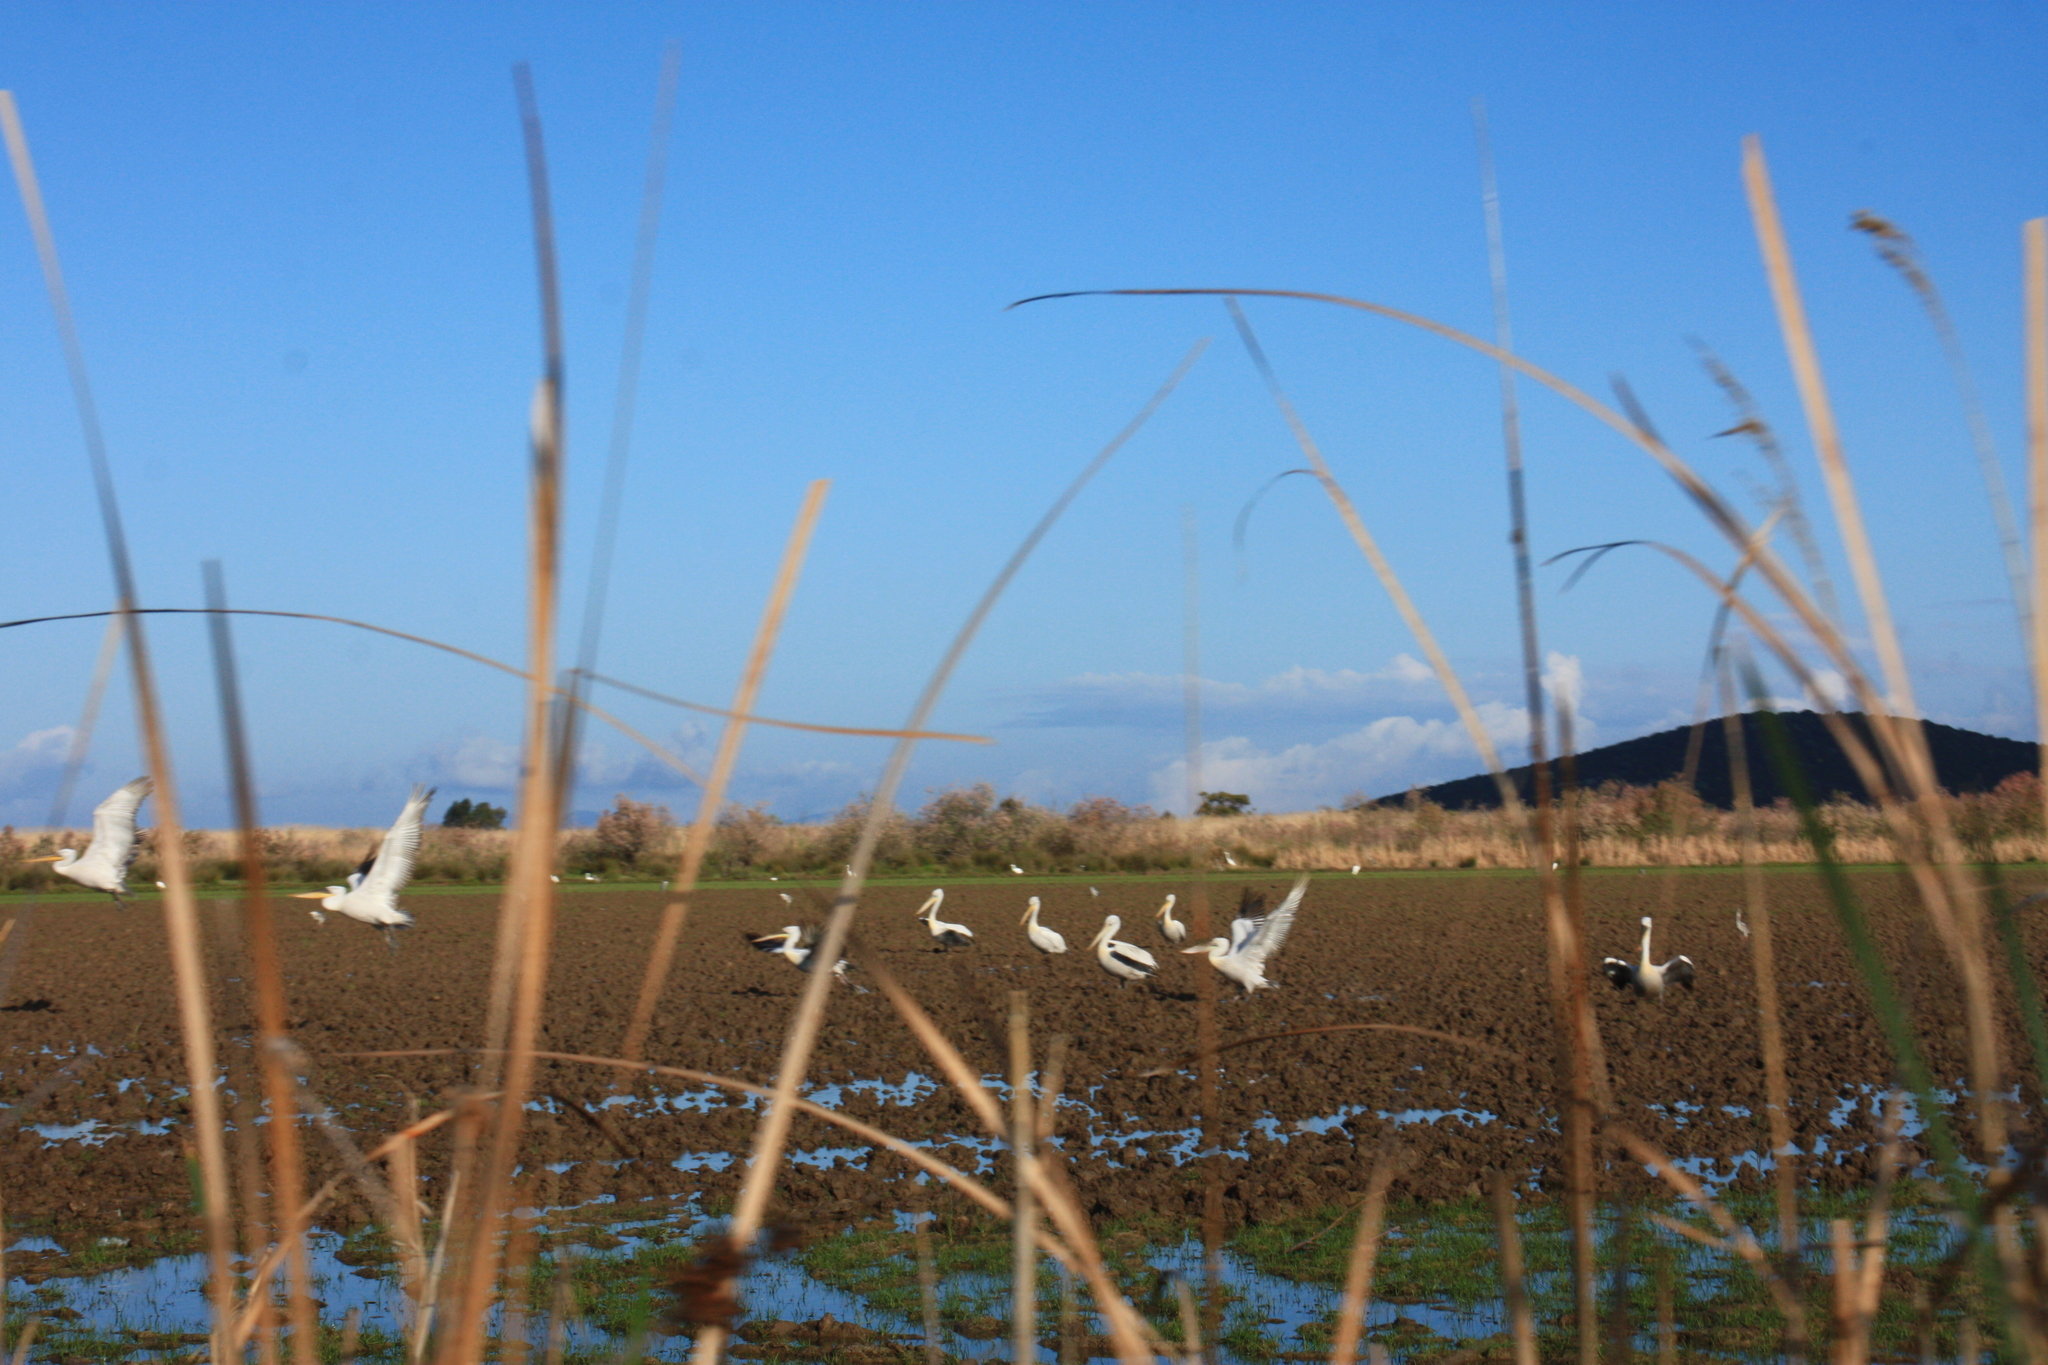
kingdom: Animalia
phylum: Chordata
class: Aves
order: Pelecaniformes
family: Pelecanidae
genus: Pelecanus
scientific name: Pelecanus crispus
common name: Dalmatian pelican
